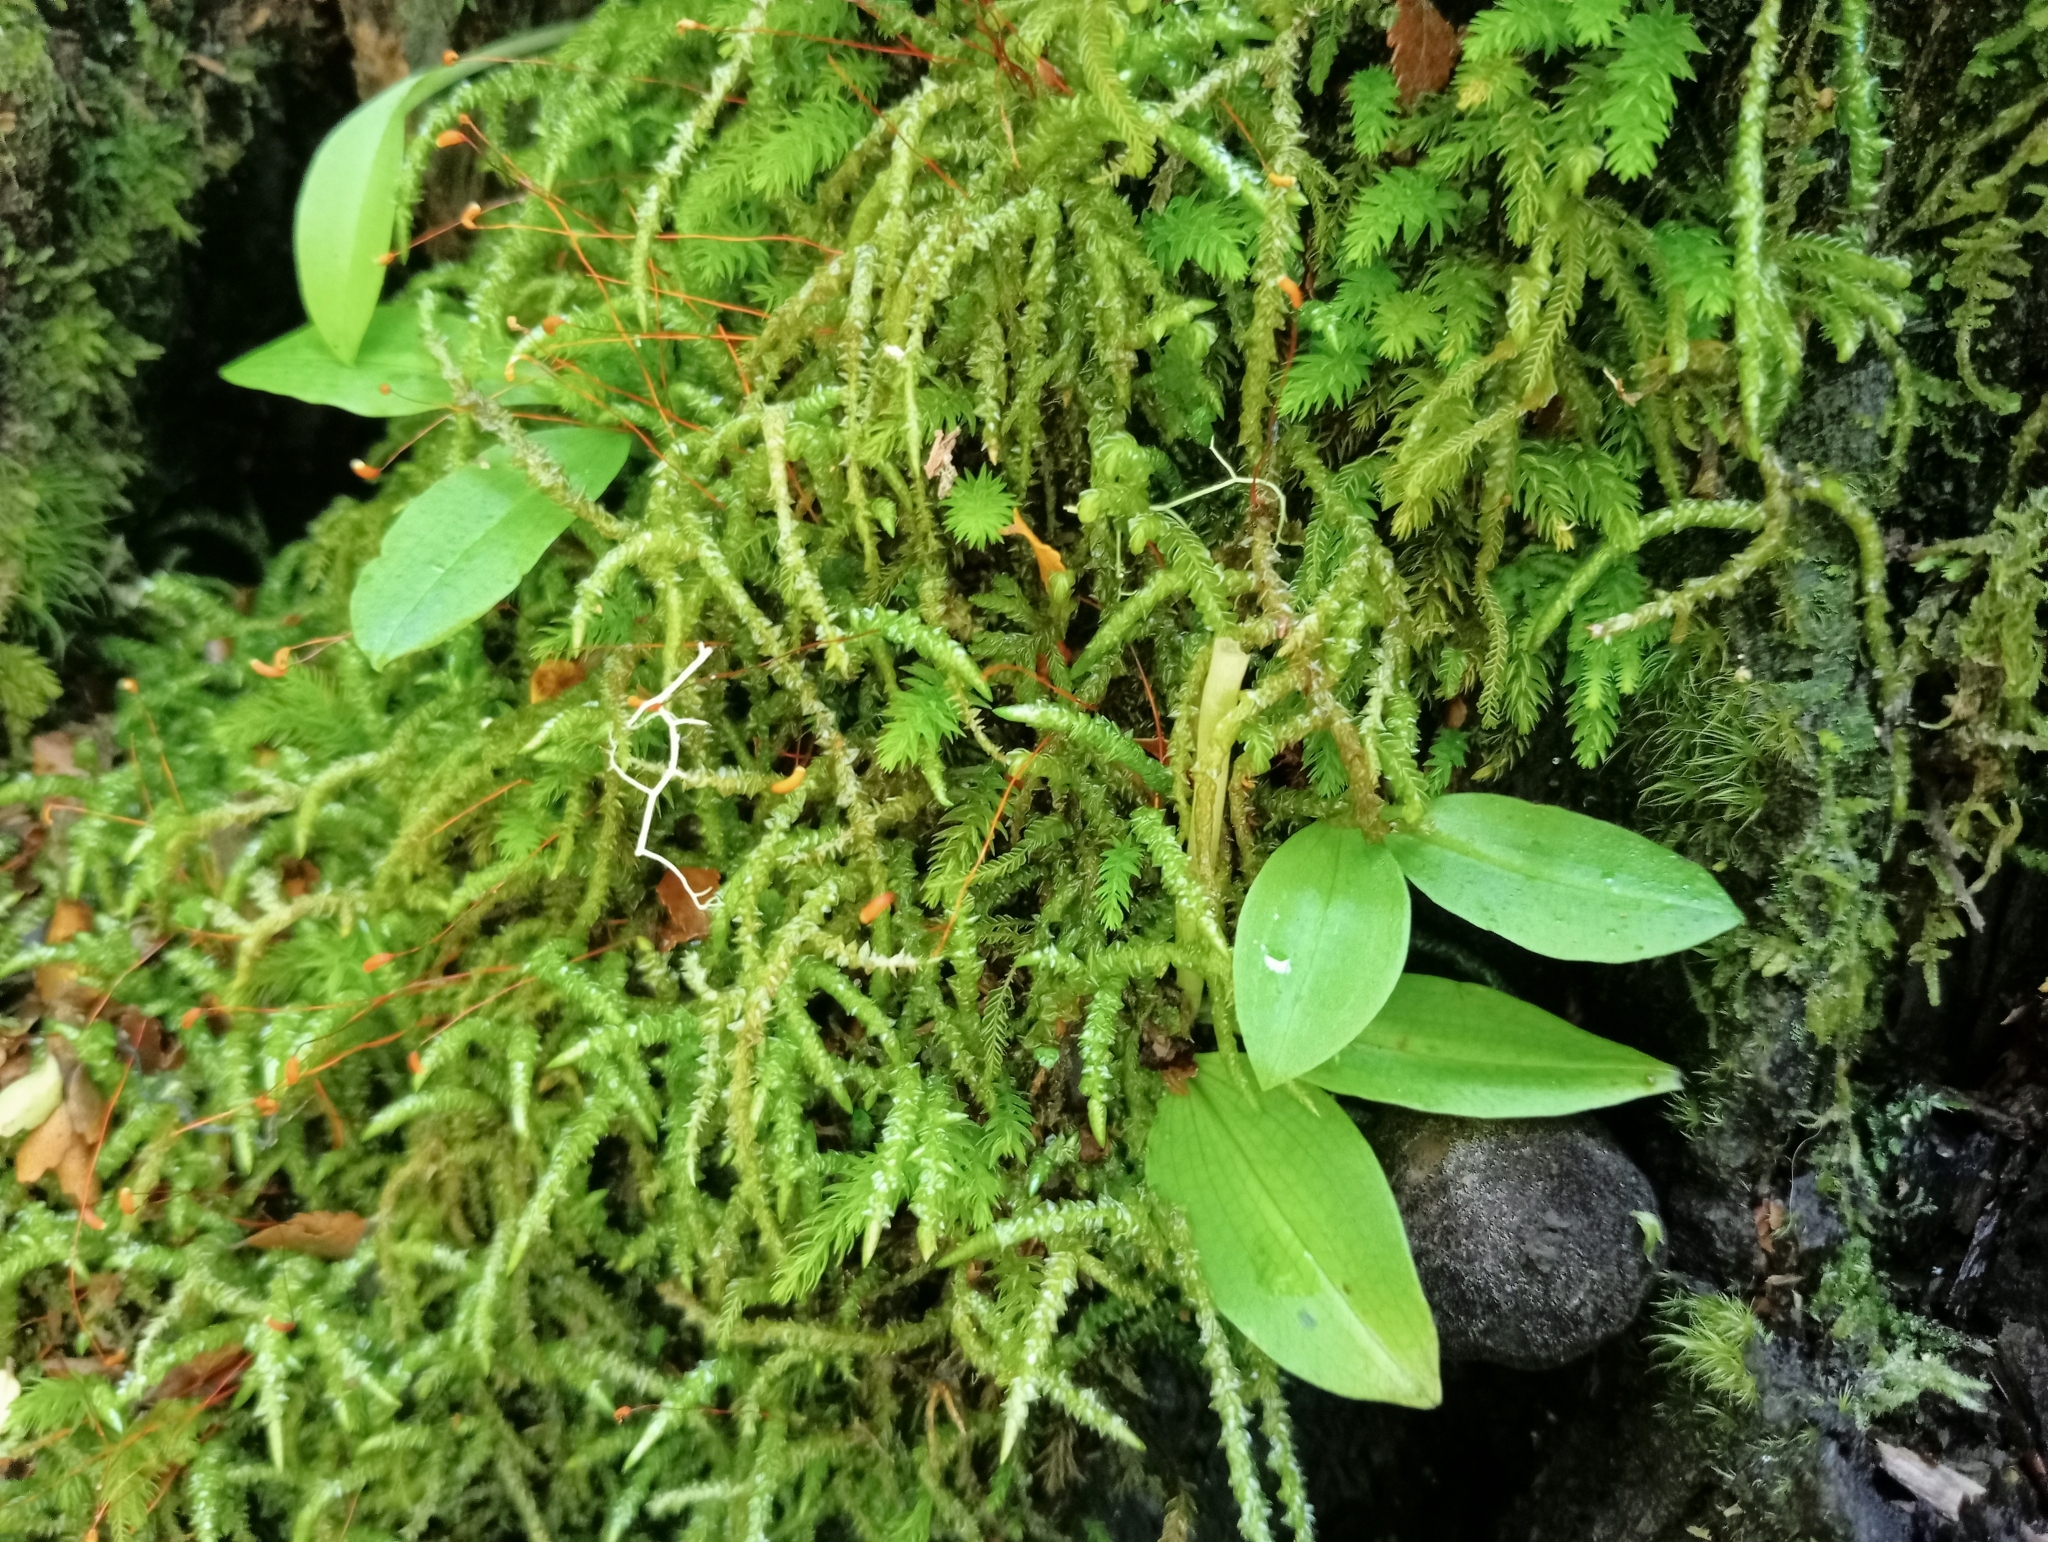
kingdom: Plantae
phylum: Tracheophyta
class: Liliopsida
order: Asparagales
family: Orchidaceae
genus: Chiloglottis
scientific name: Chiloglottis cornuta
